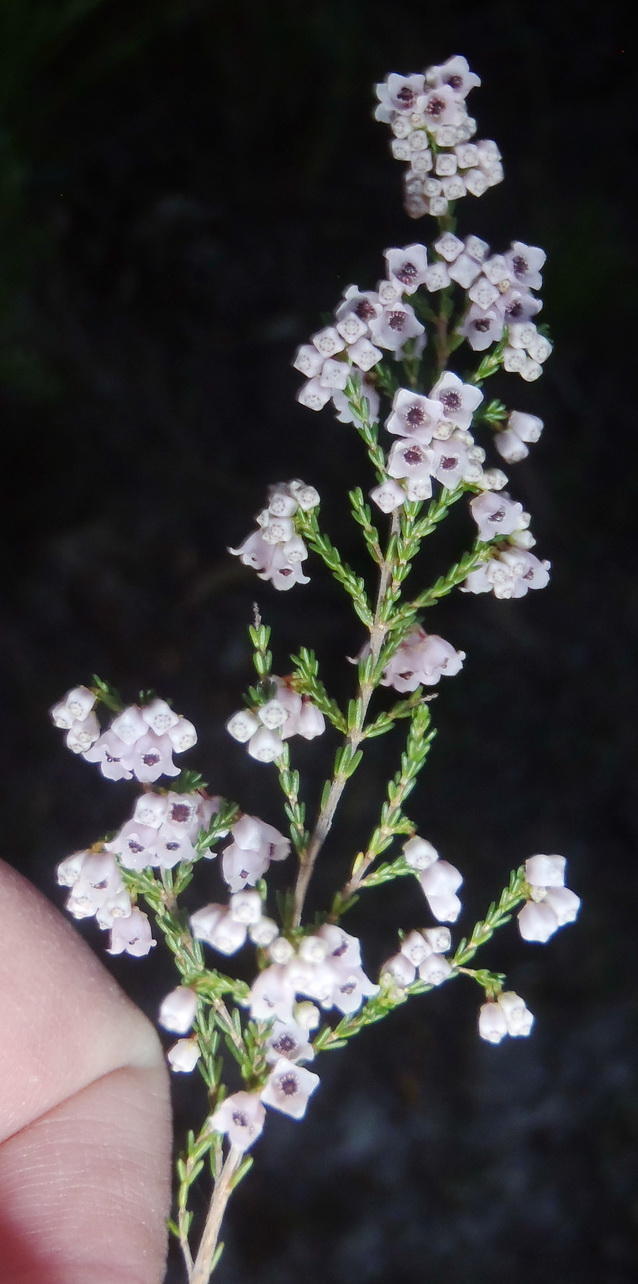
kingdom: Plantae
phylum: Tracheophyta
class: Magnoliopsida
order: Ericales
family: Ericaceae
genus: Erica
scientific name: Erica quadrangularis
